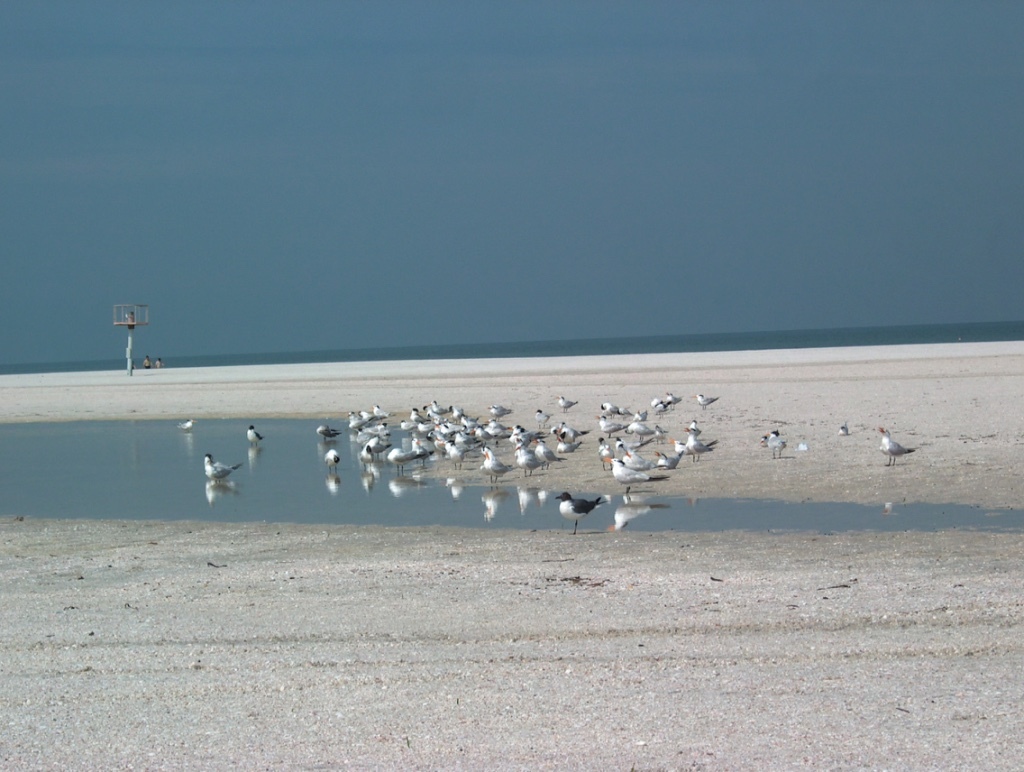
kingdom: Animalia
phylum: Chordata
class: Aves
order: Charadriiformes
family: Laridae
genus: Thalasseus
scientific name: Thalasseus maximus
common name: Royal tern
